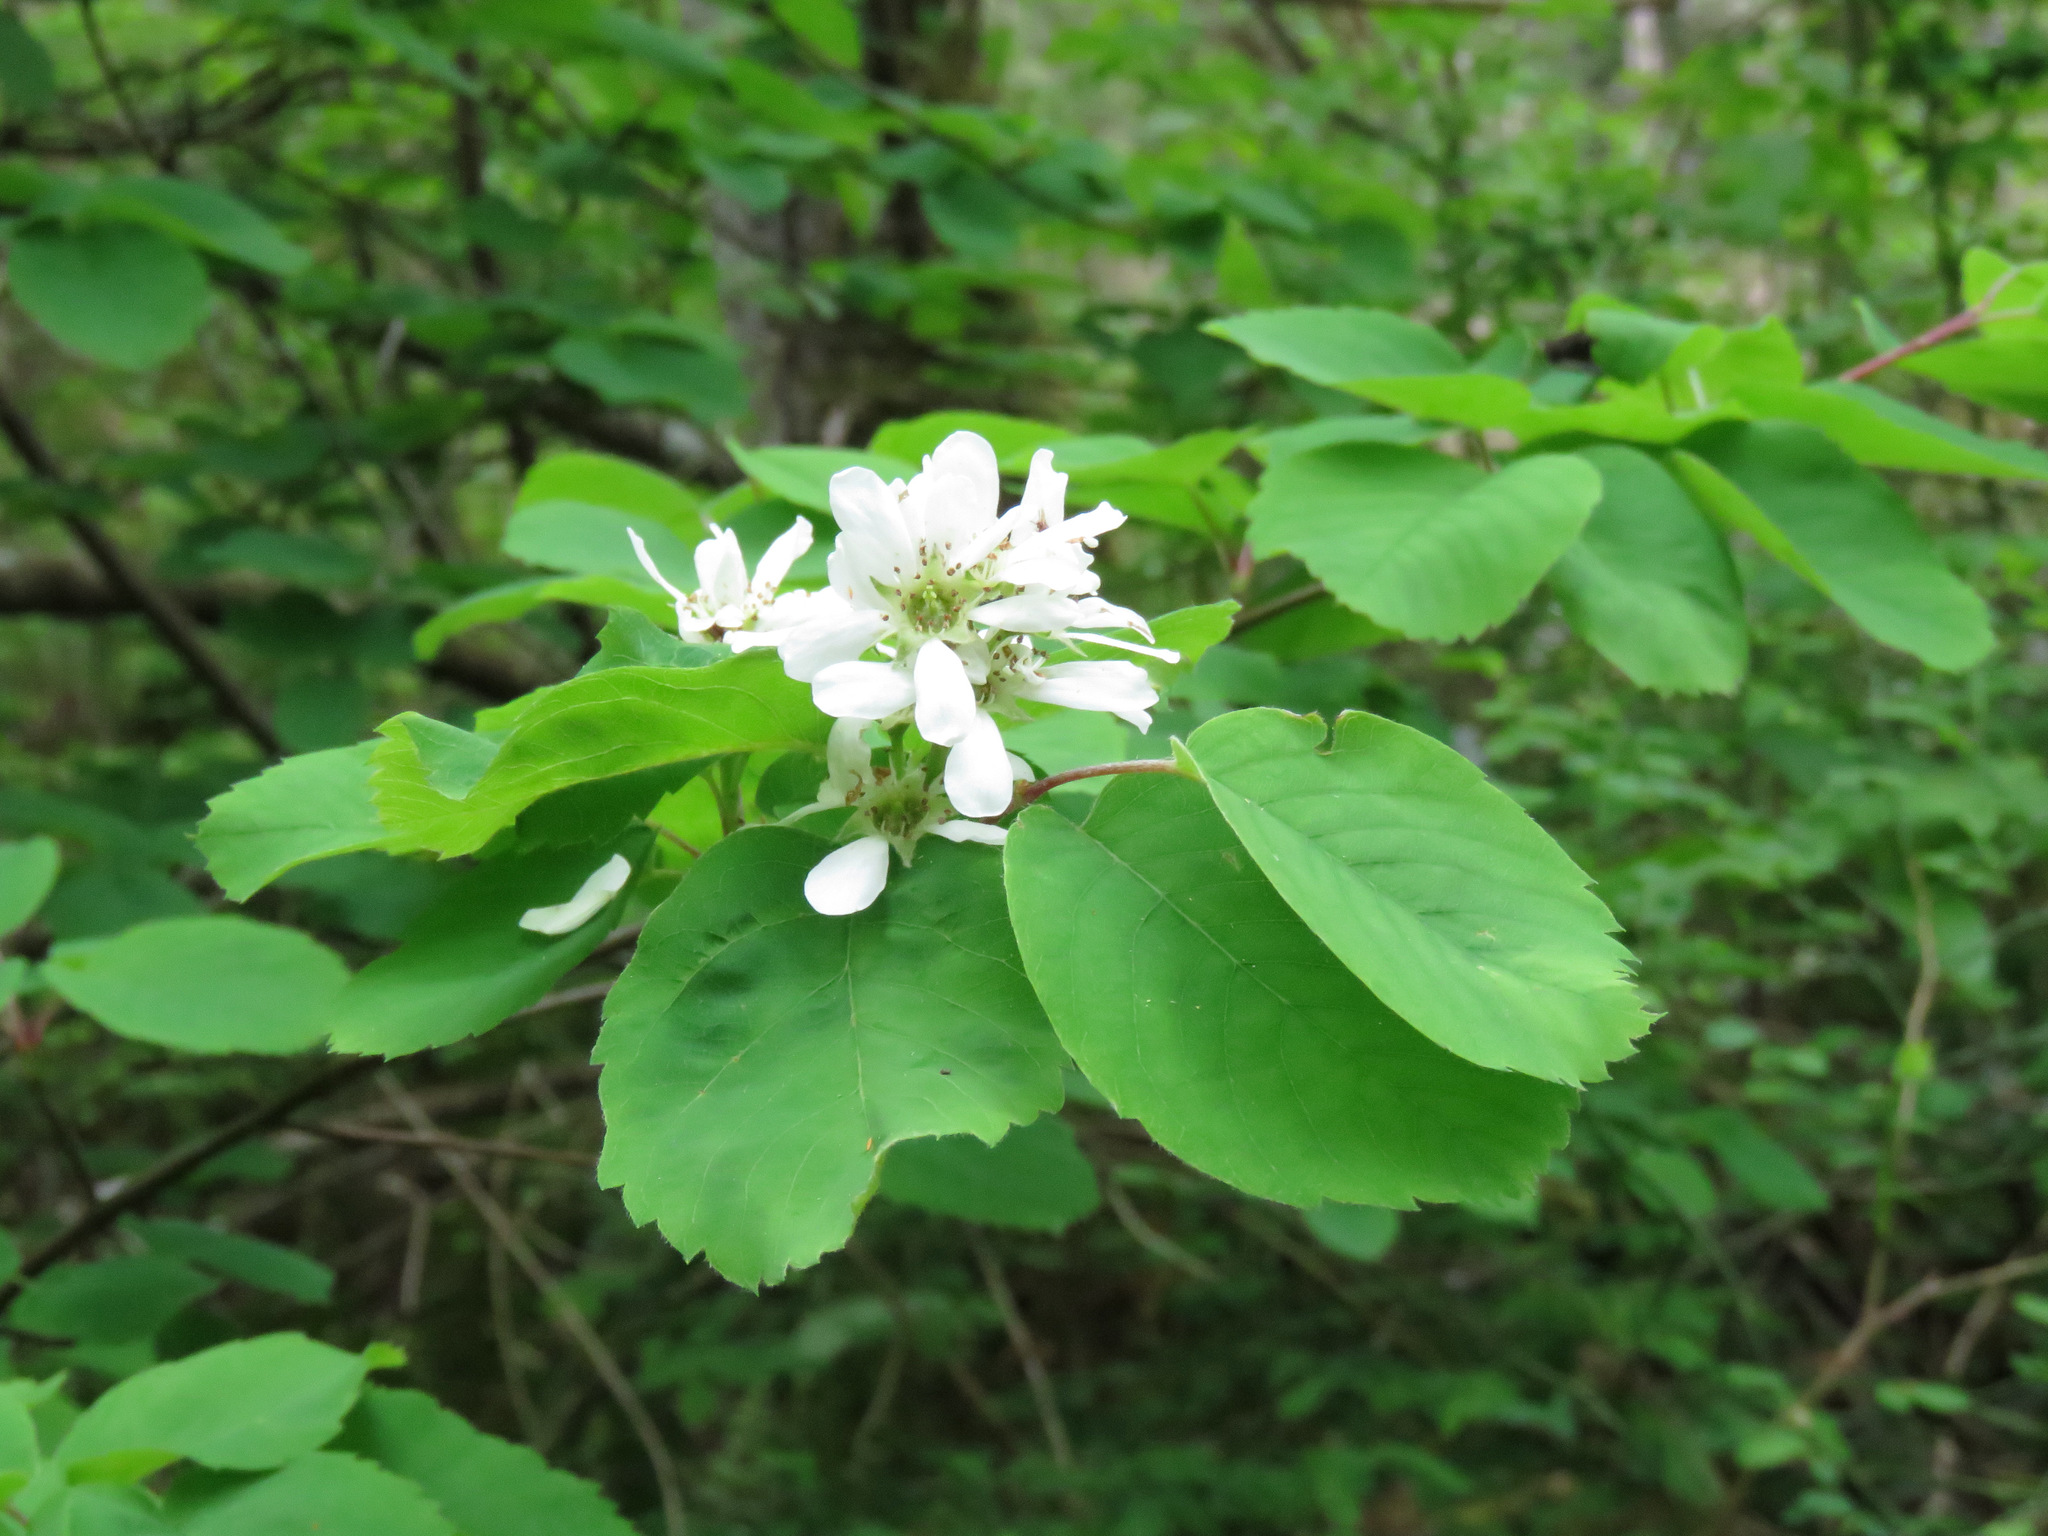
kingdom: Plantae
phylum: Tracheophyta
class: Magnoliopsida
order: Rosales
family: Rosaceae
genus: Amelanchier
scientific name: Amelanchier alnifolia
